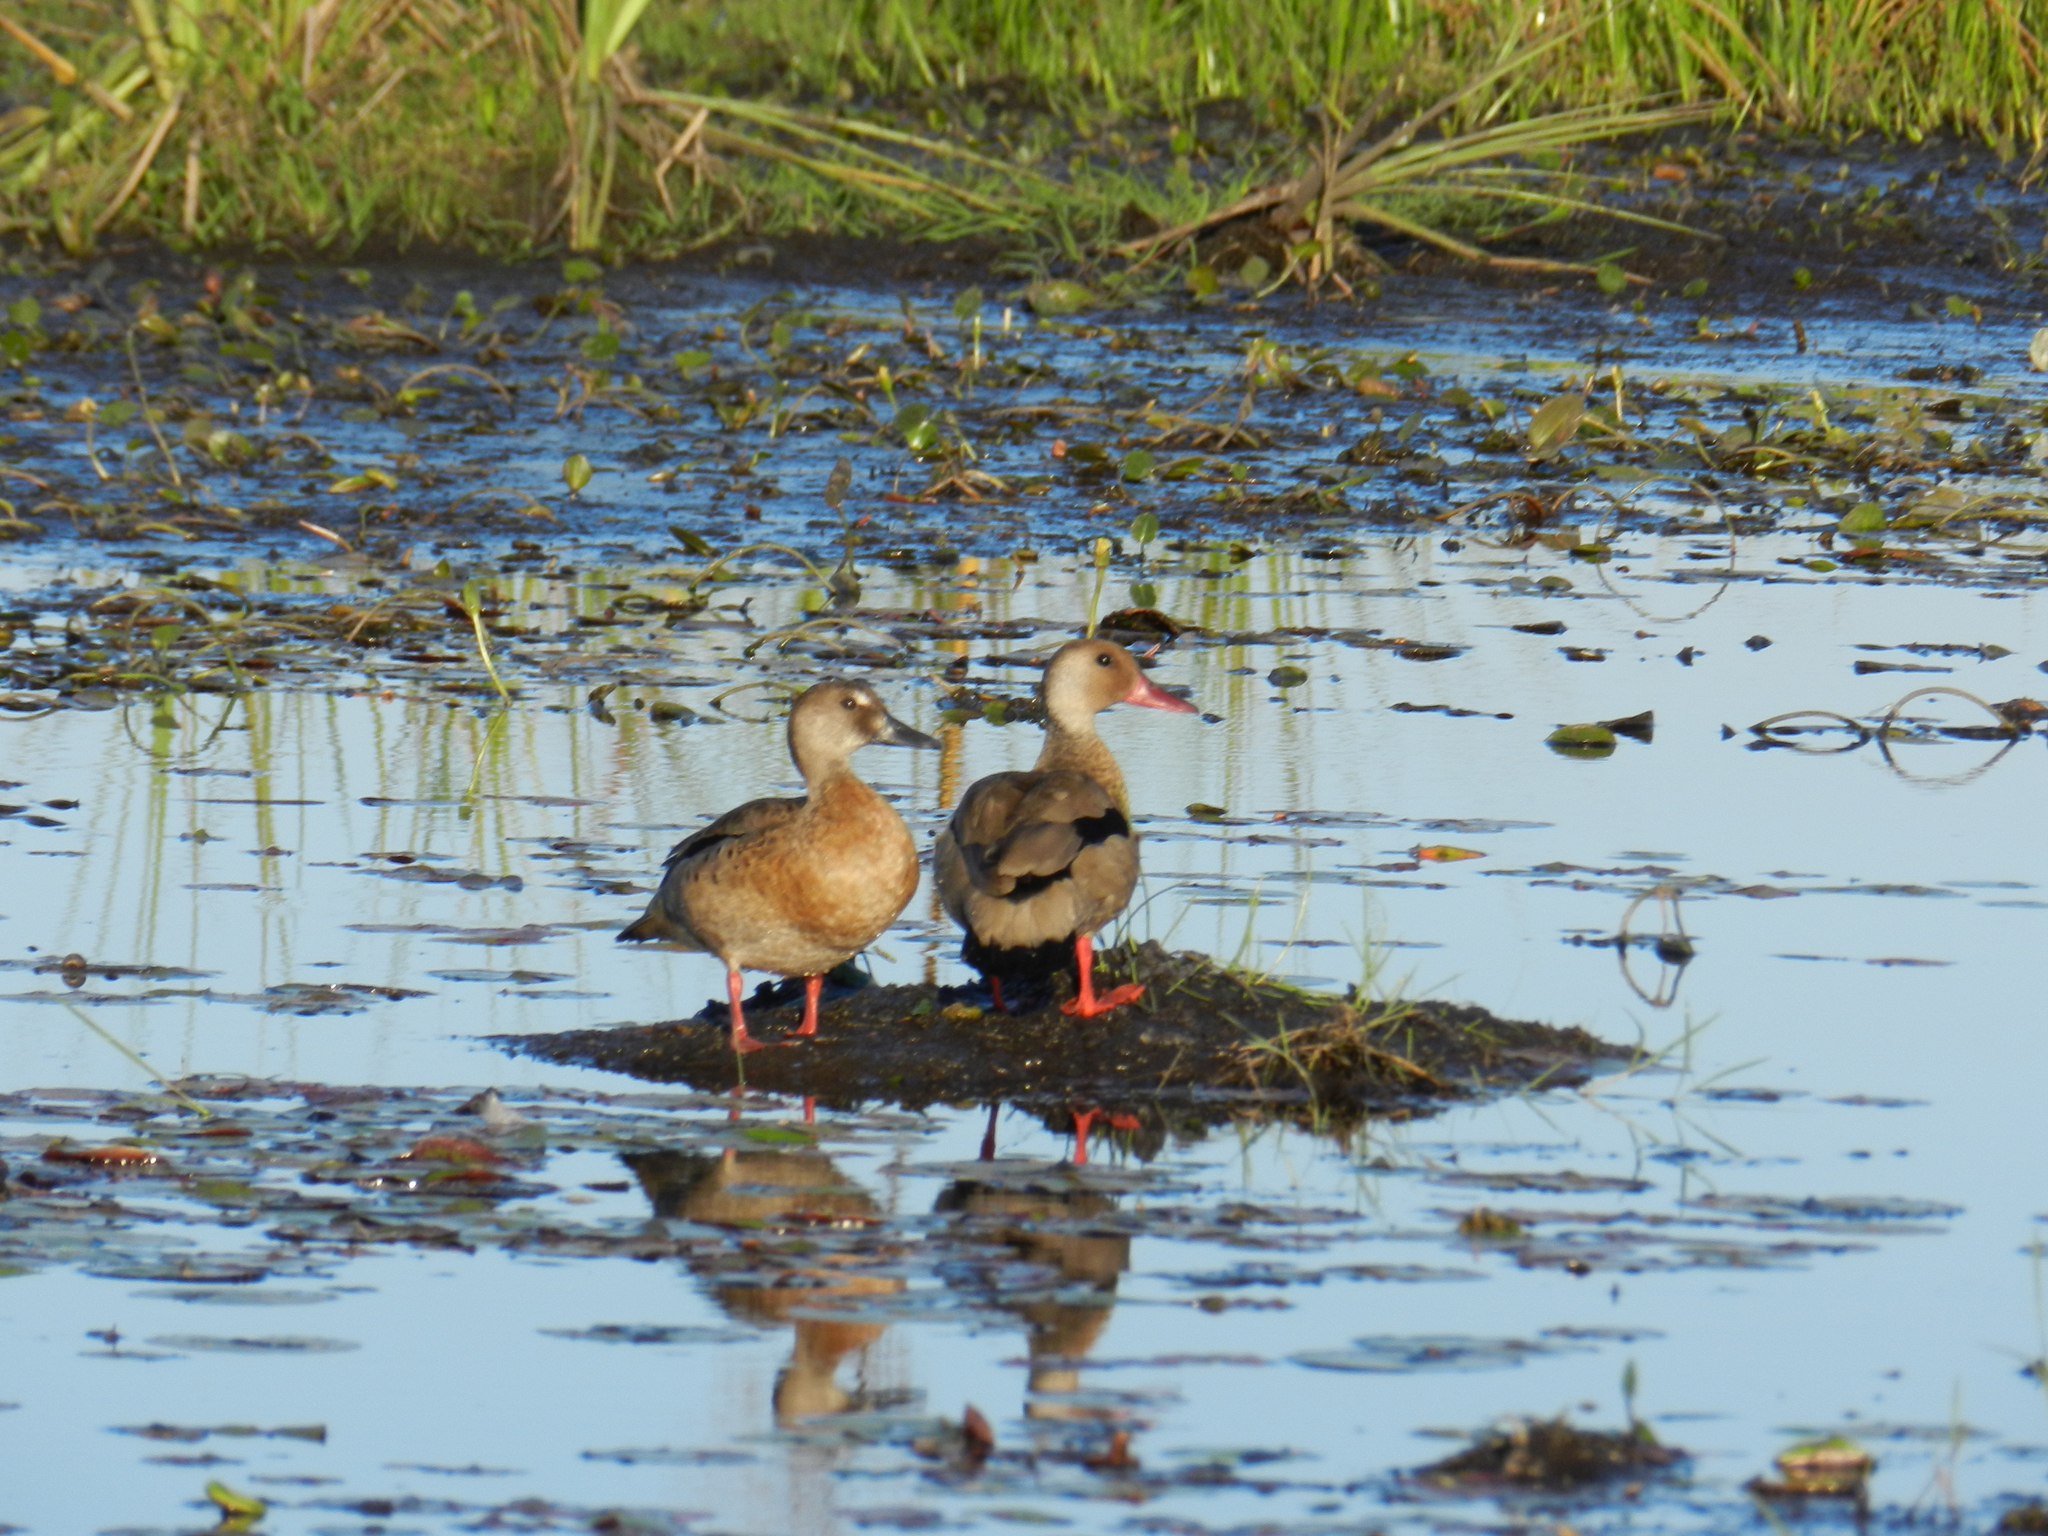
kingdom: Animalia
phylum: Chordata
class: Aves
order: Anseriformes
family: Anatidae
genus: Amazonetta
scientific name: Amazonetta brasiliensis
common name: Brazilian teal
